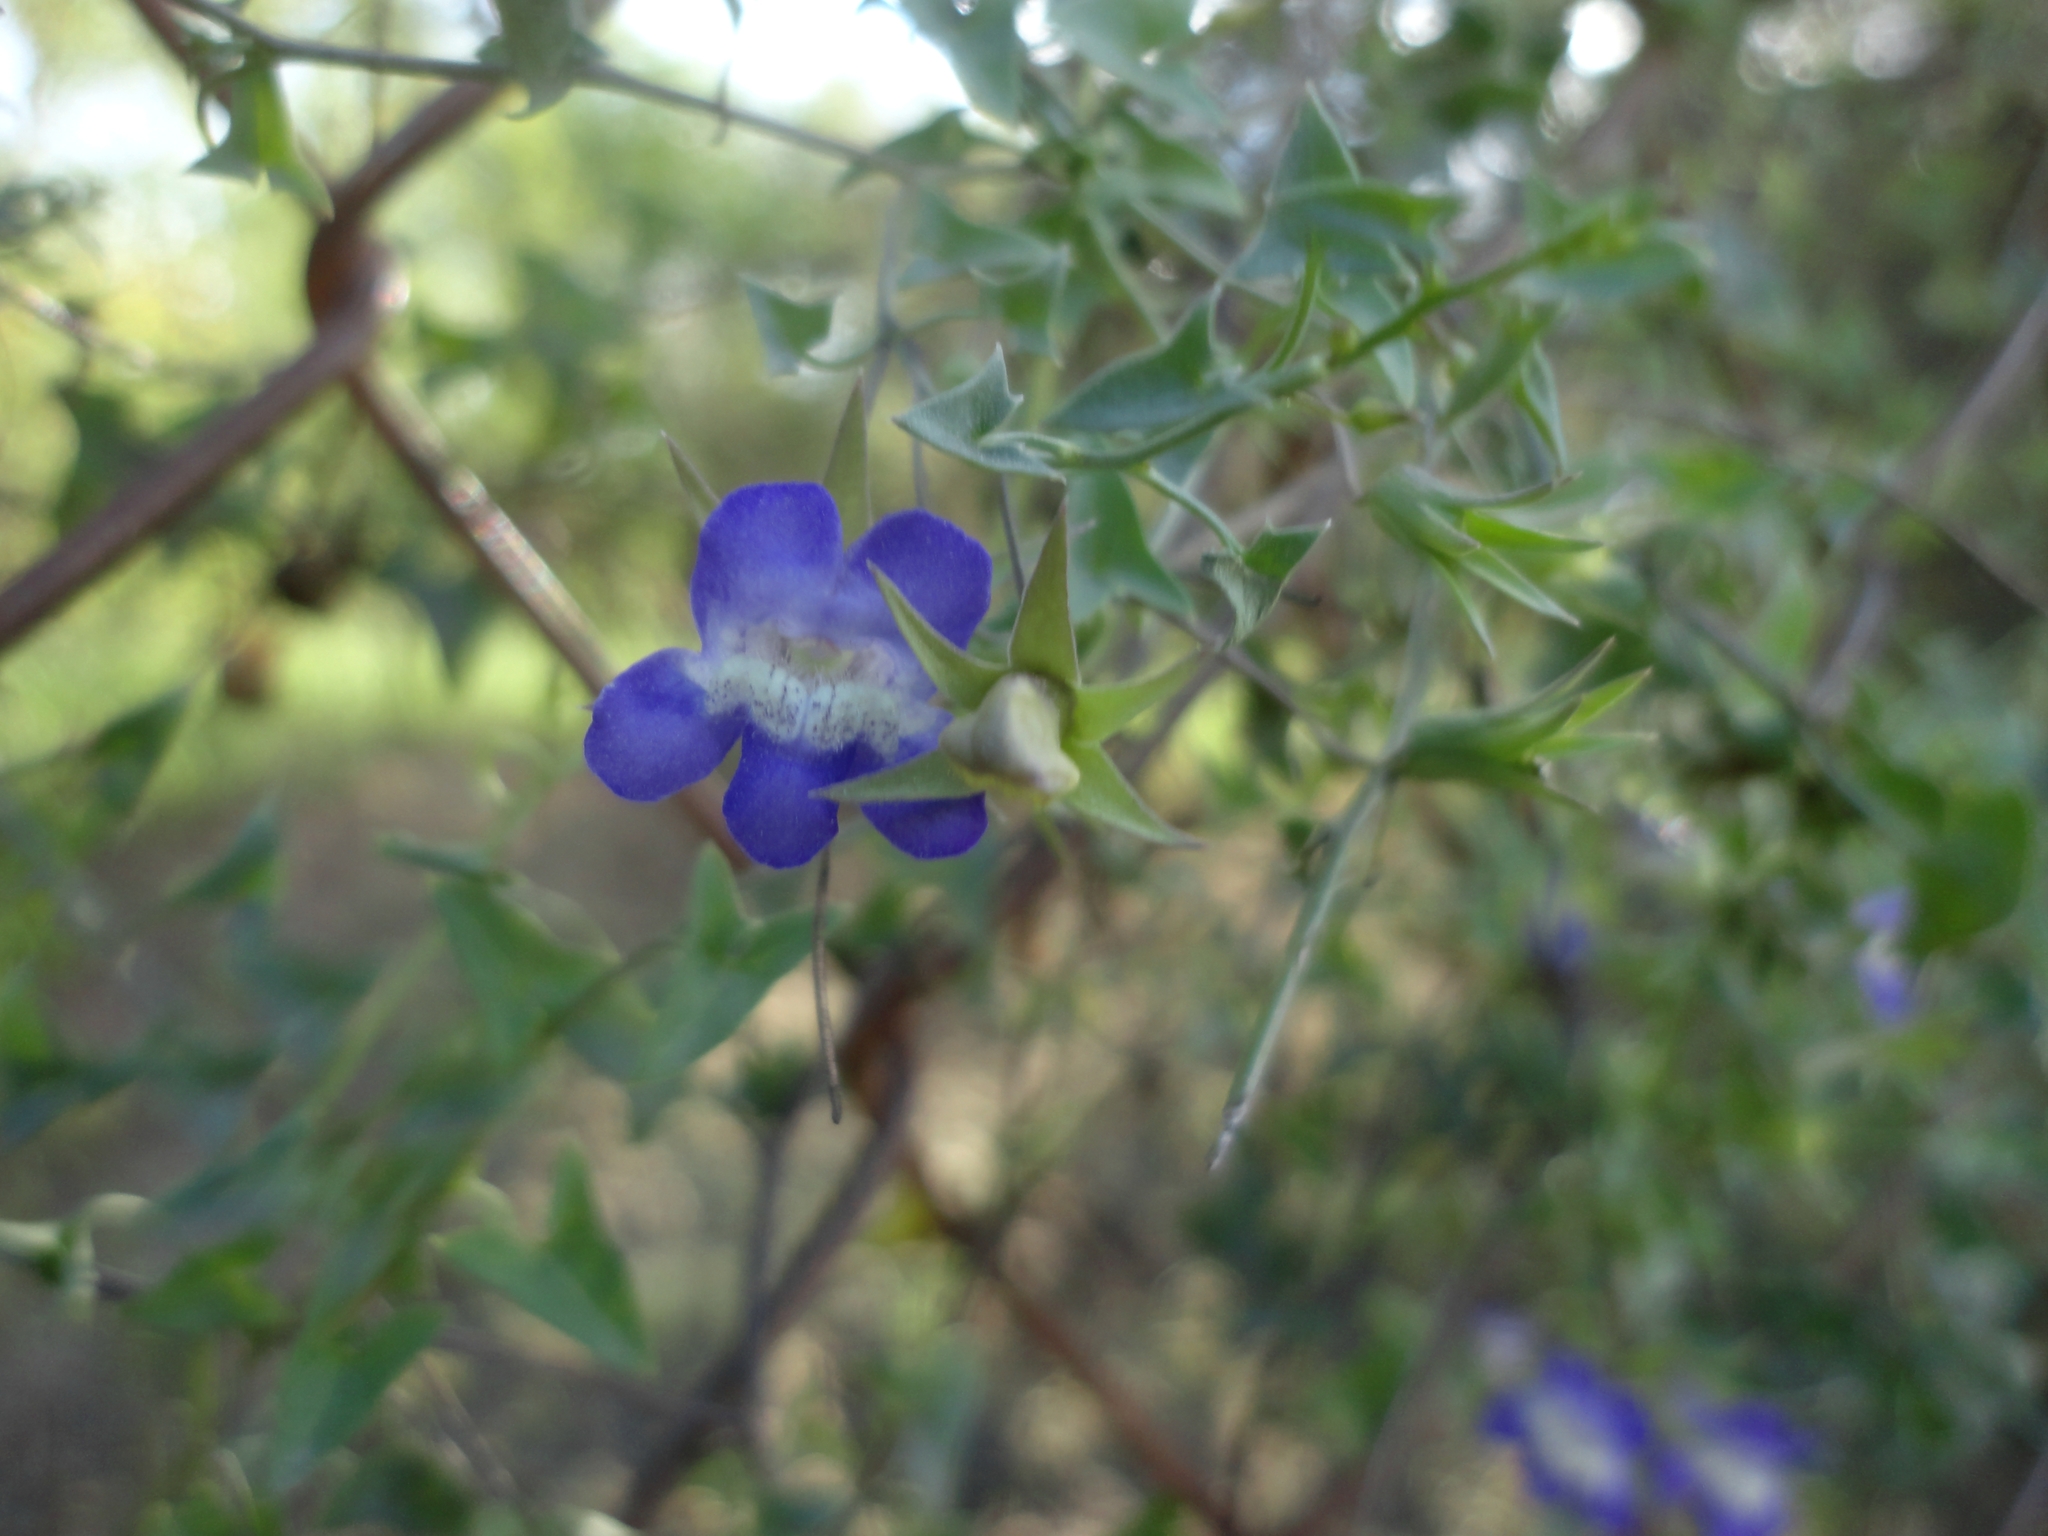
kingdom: Plantae
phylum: Tracheophyta
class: Magnoliopsida
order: Lamiales
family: Plantaginaceae
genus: Maurandella
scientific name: Maurandella antirrhiniflora
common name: Violet twining-snapdragon
